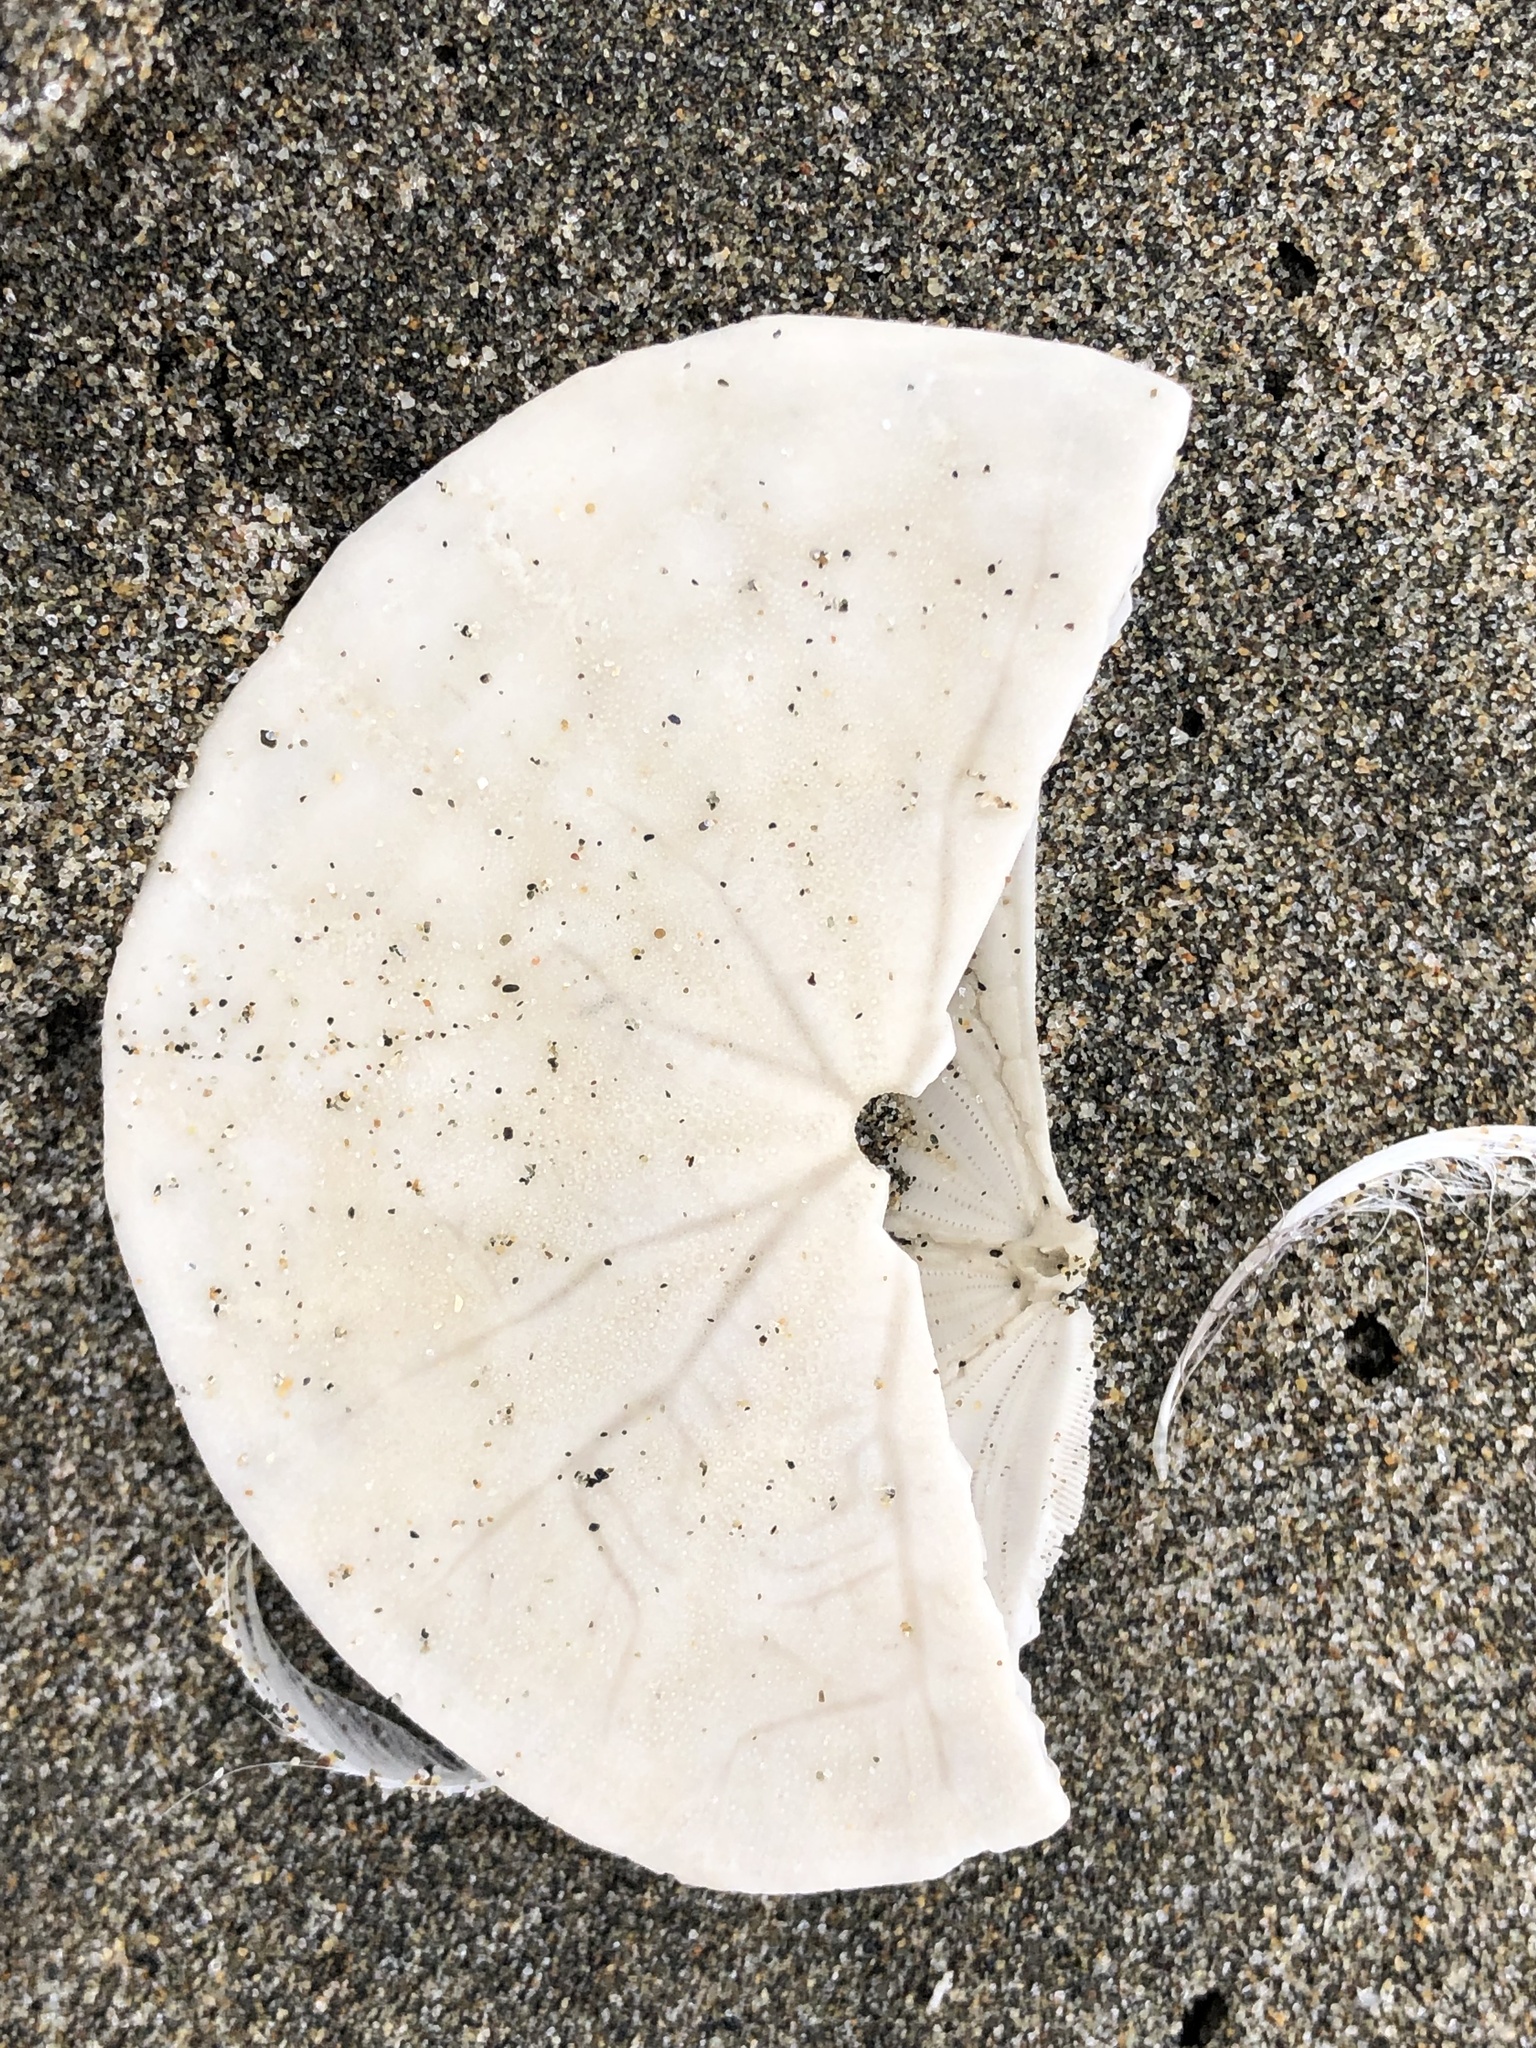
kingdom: Animalia
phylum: Echinodermata
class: Echinoidea
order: Echinolampadacea
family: Dendrasteridae
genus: Dendraster
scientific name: Dendraster excentricus
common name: Eccentric sand dollar sea urchin
